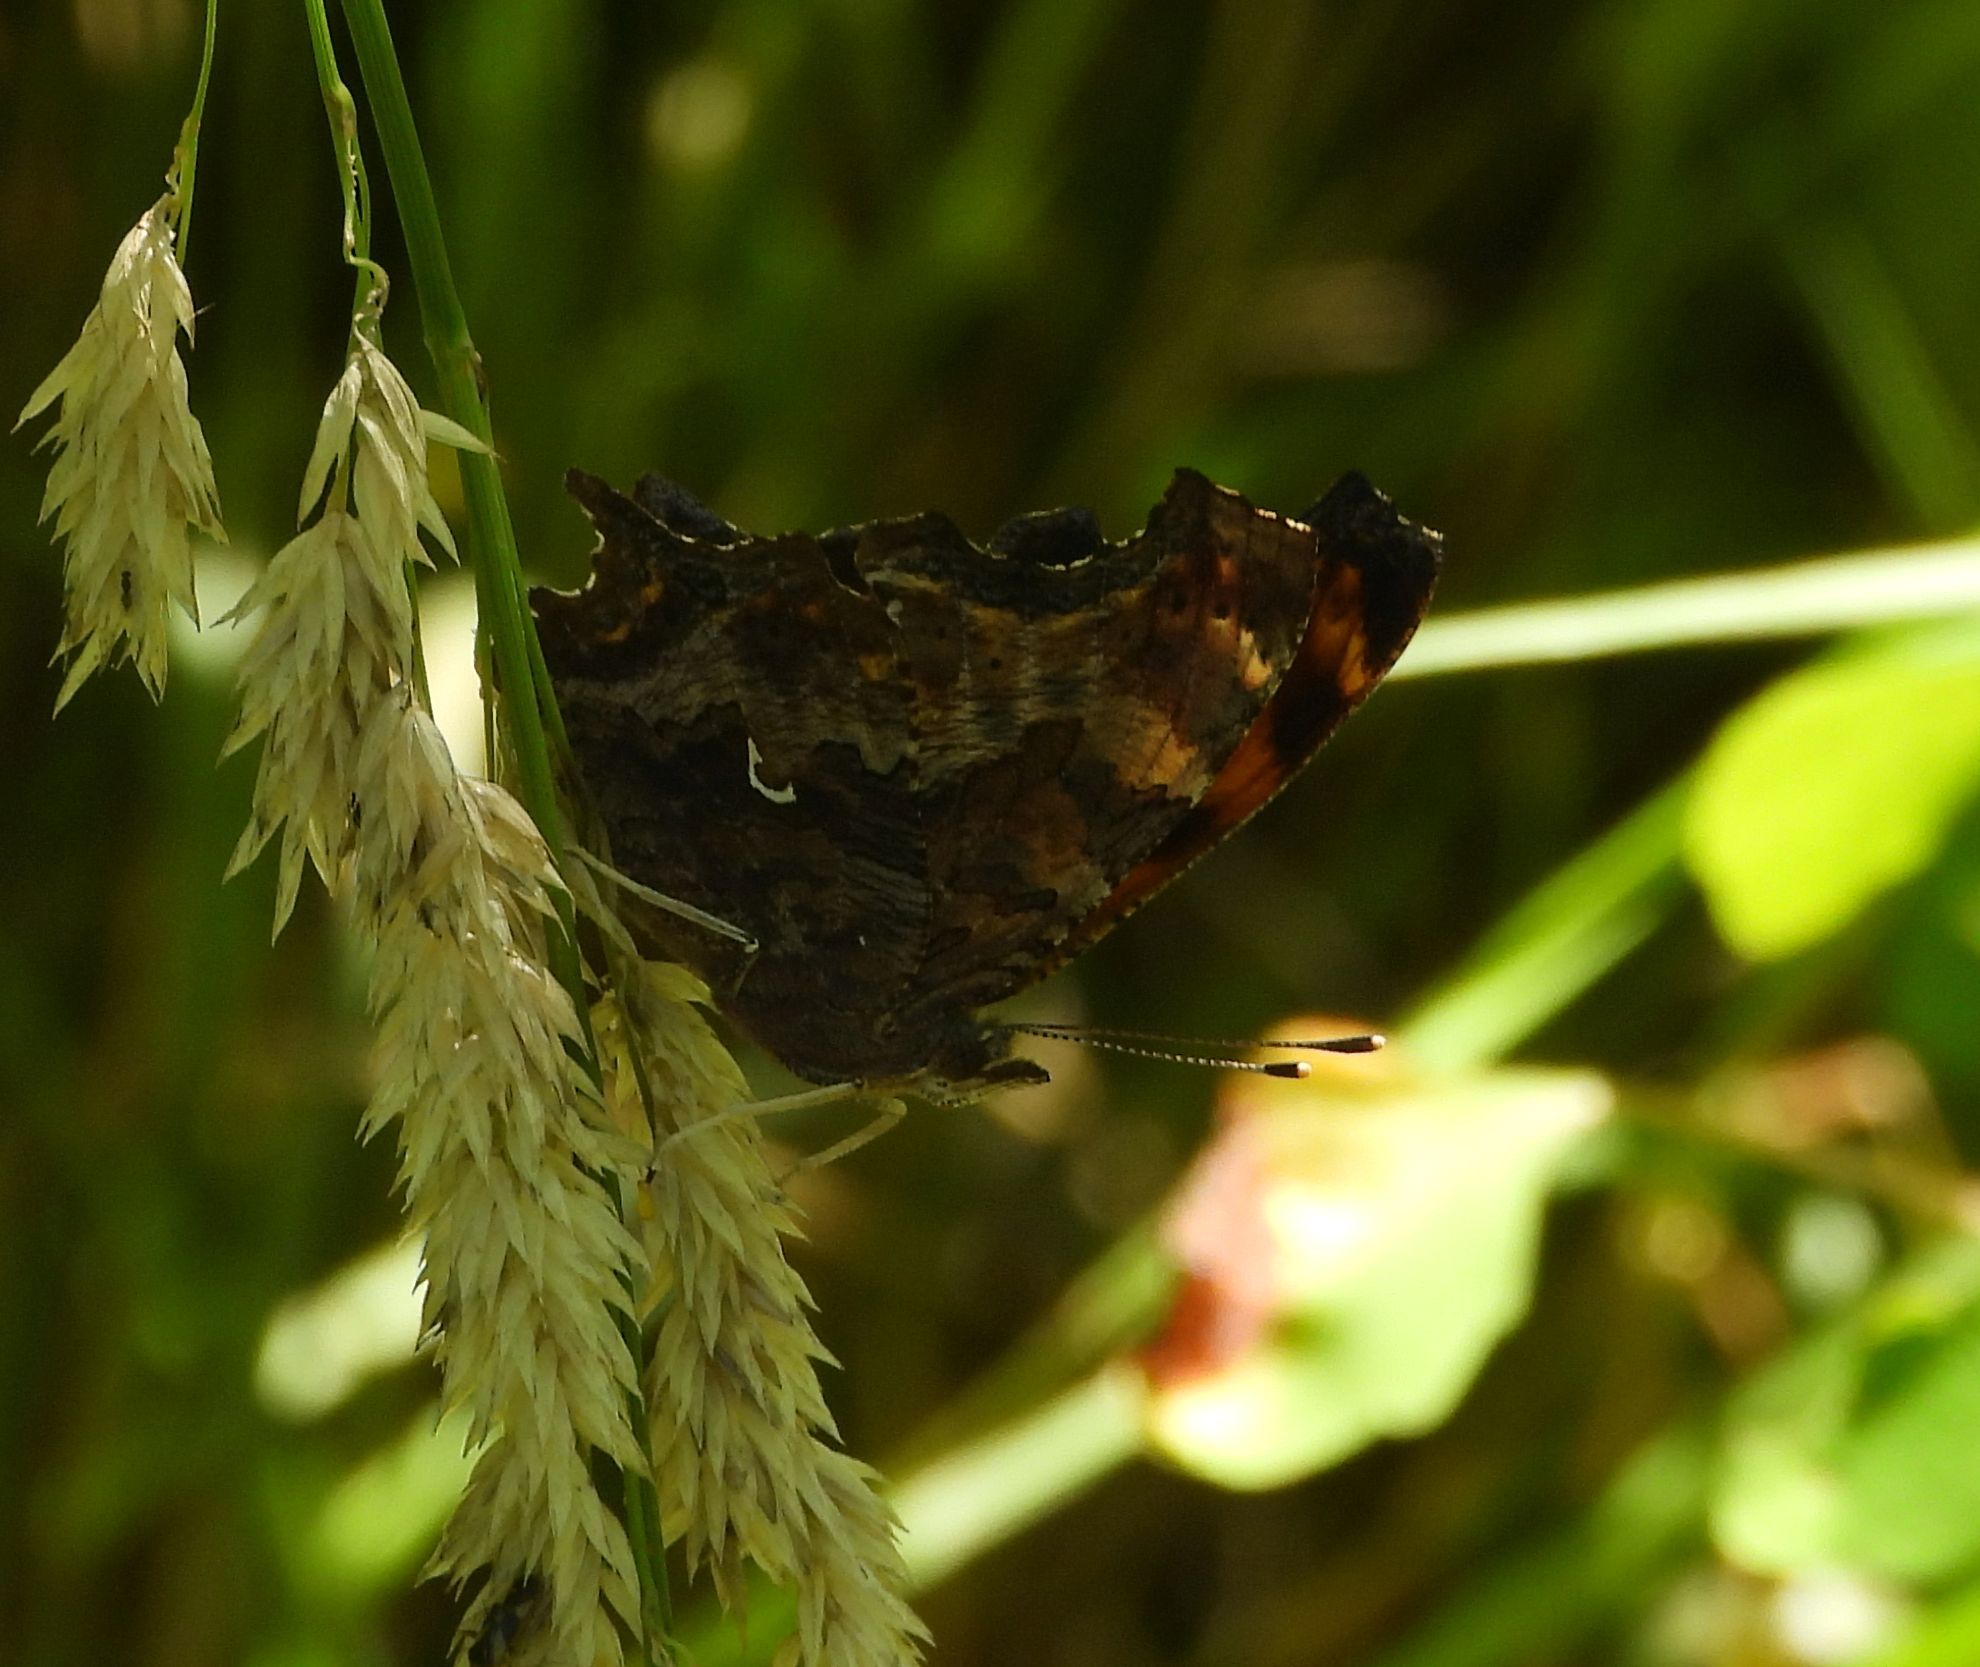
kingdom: Animalia
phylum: Arthropoda
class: Insecta
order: Lepidoptera
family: Nymphalidae
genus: Polygonia
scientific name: Polygonia comma
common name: Eastern comma
